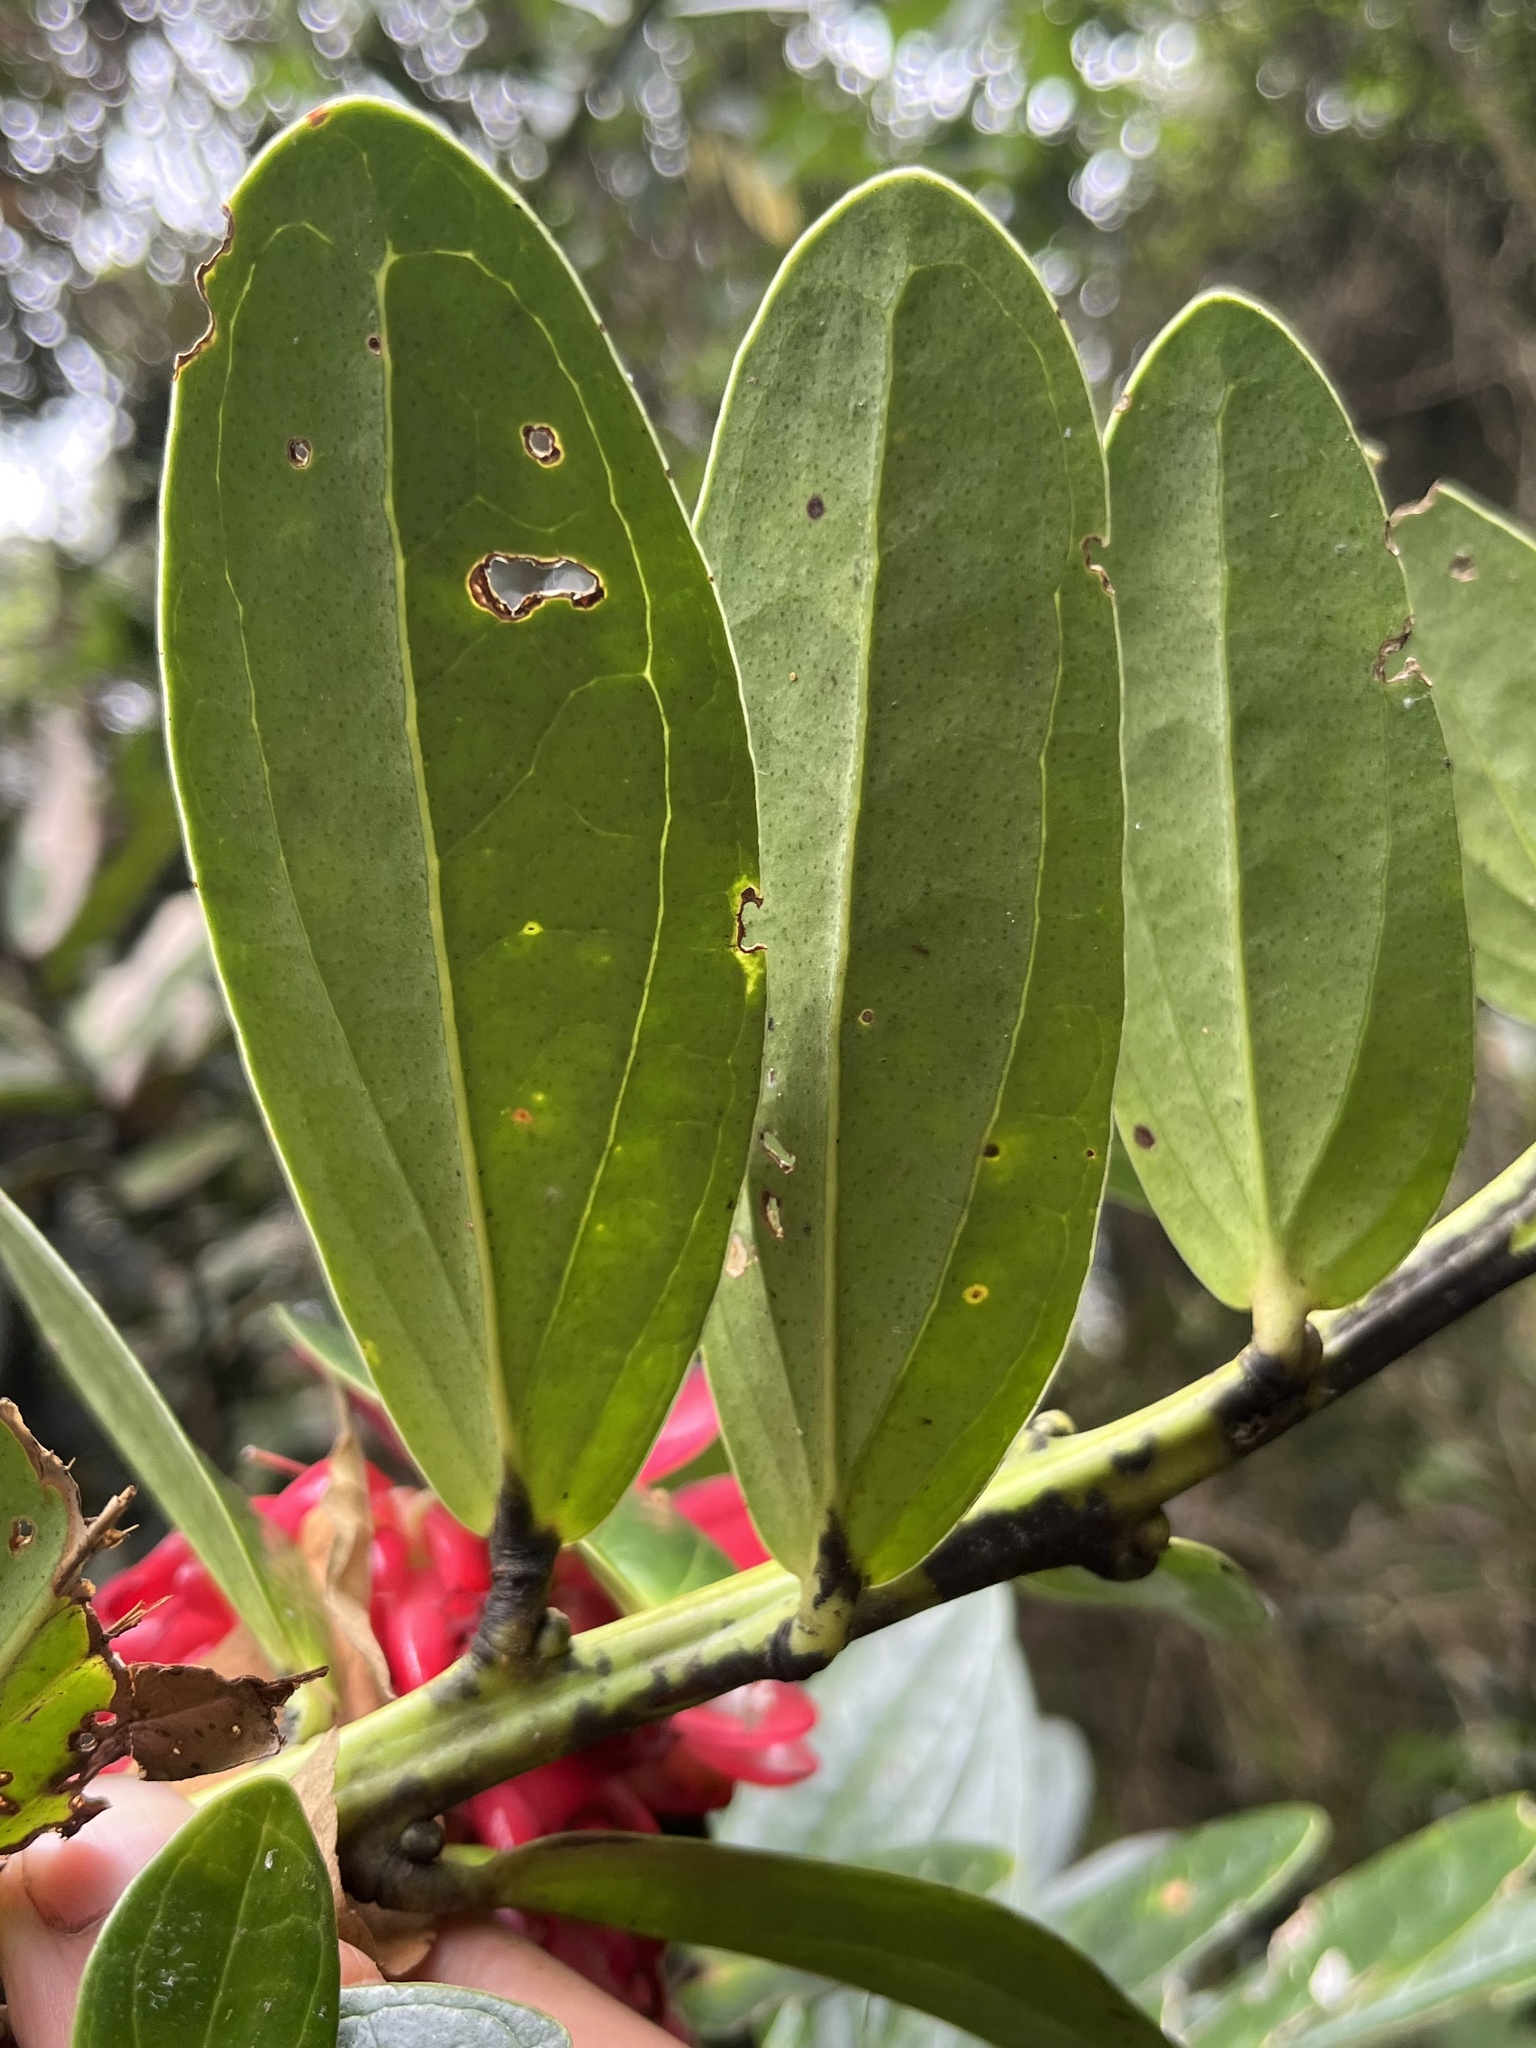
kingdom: Plantae
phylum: Tracheophyta
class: Magnoliopsida
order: Ericales
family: Ericaceae
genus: Cavendishia
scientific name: Cavendishia nitida
